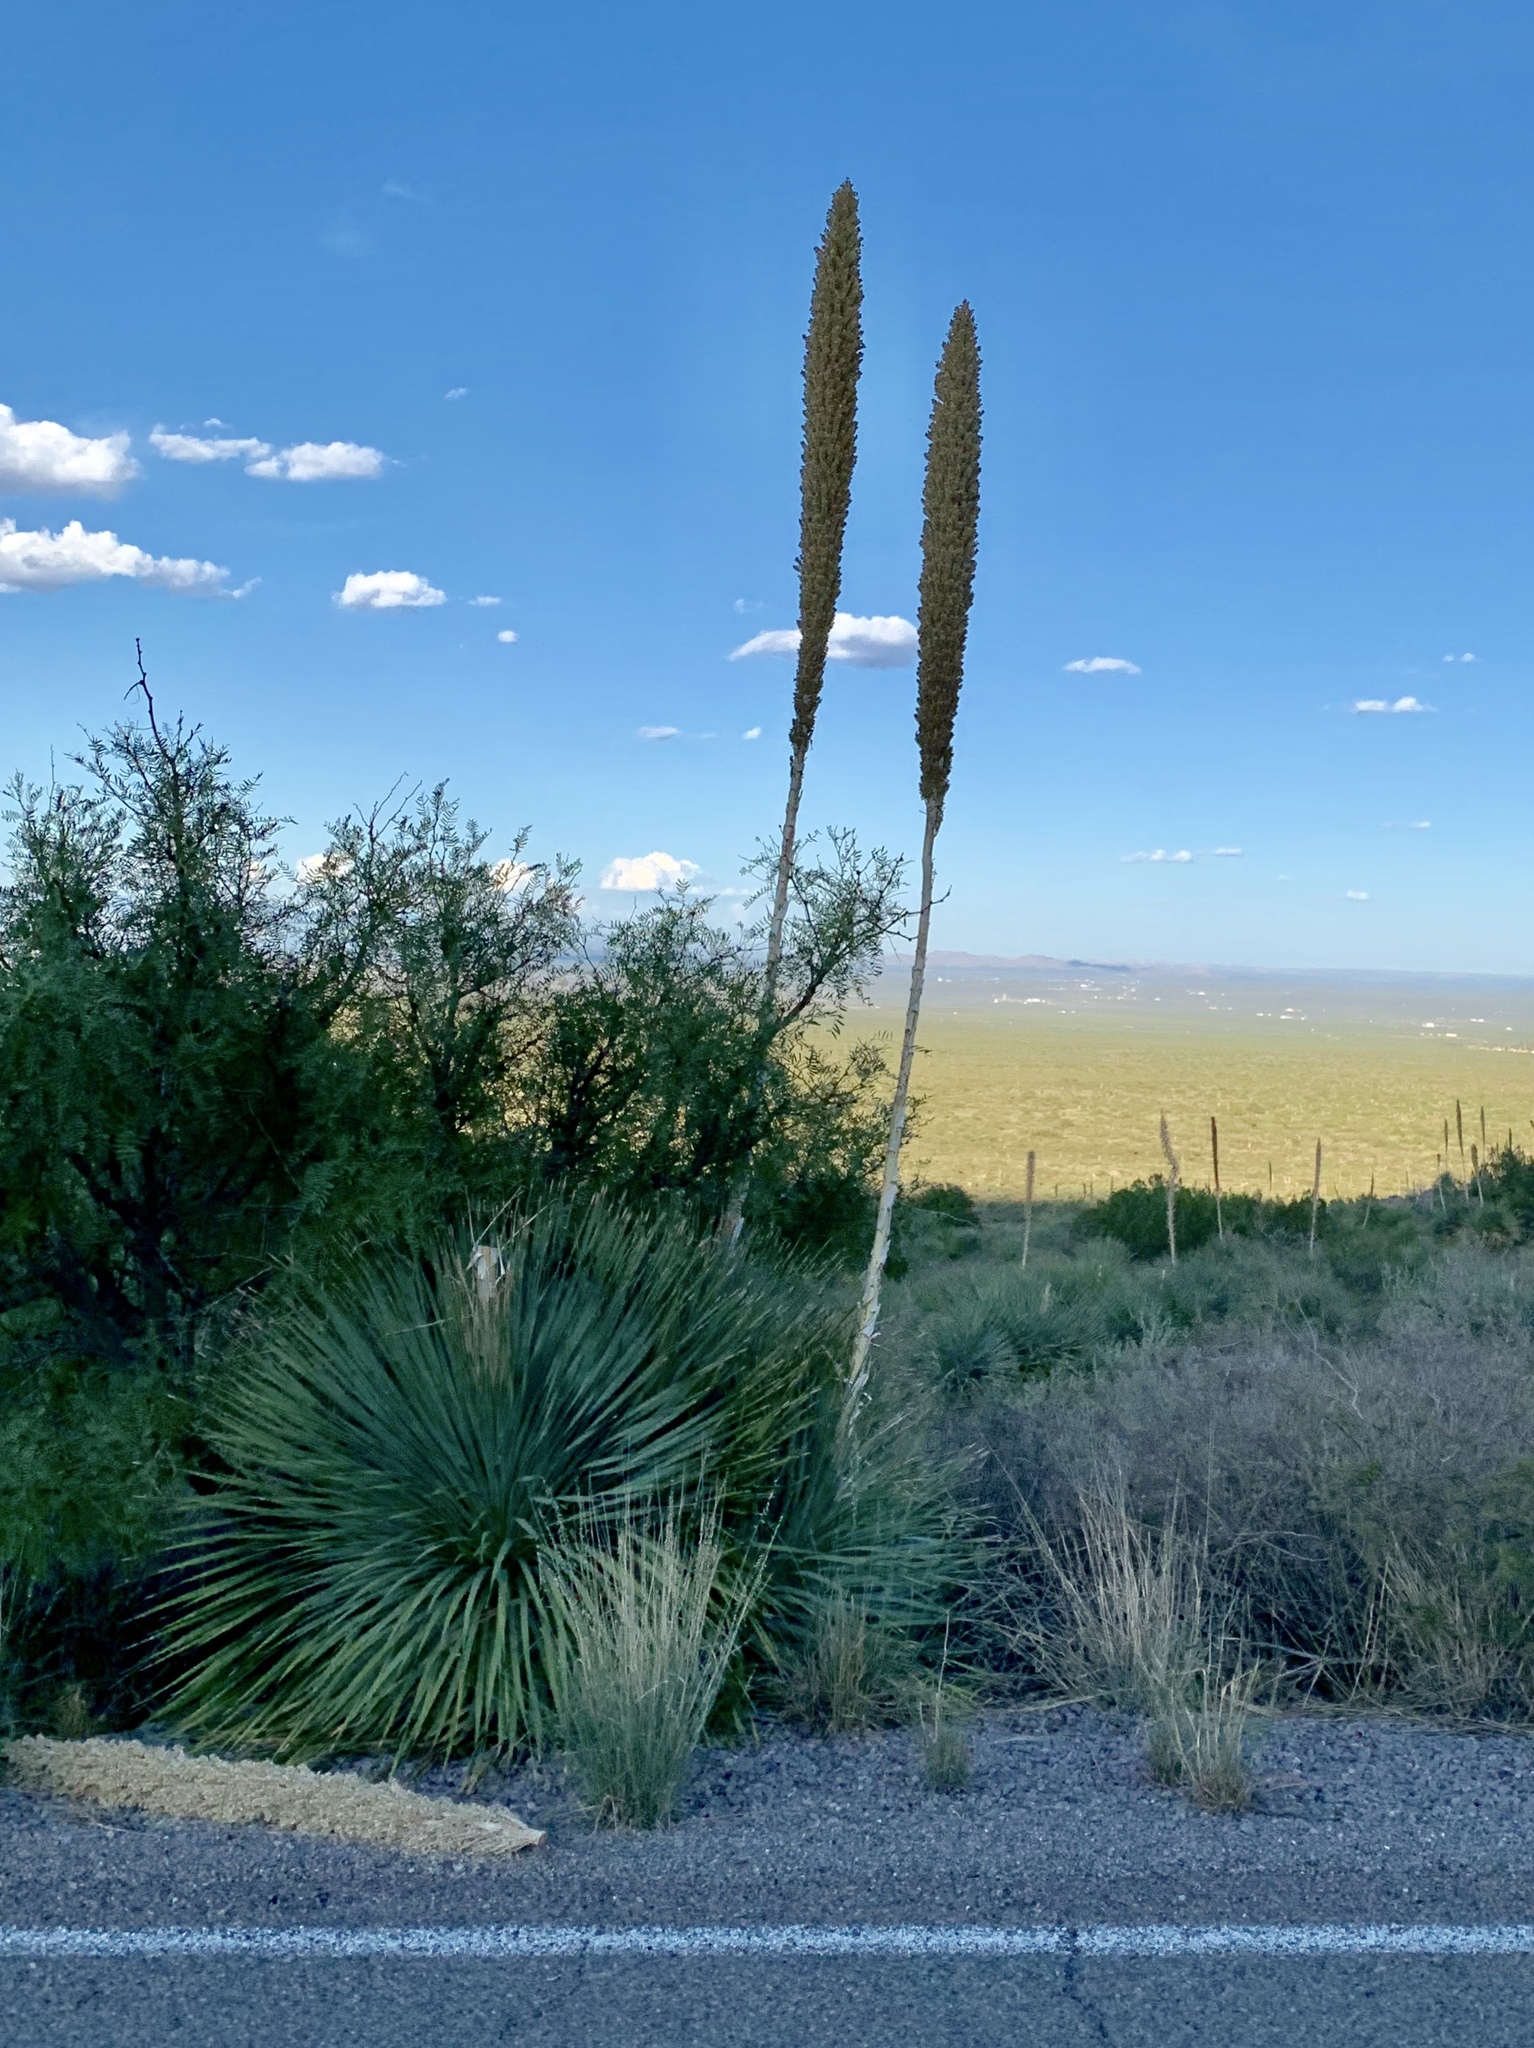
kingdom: Plantae
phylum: Tracheophyta
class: Liliopsida
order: Asparagales
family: Asparagaceae
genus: Dasylirion
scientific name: Dasylirion wheeleri
